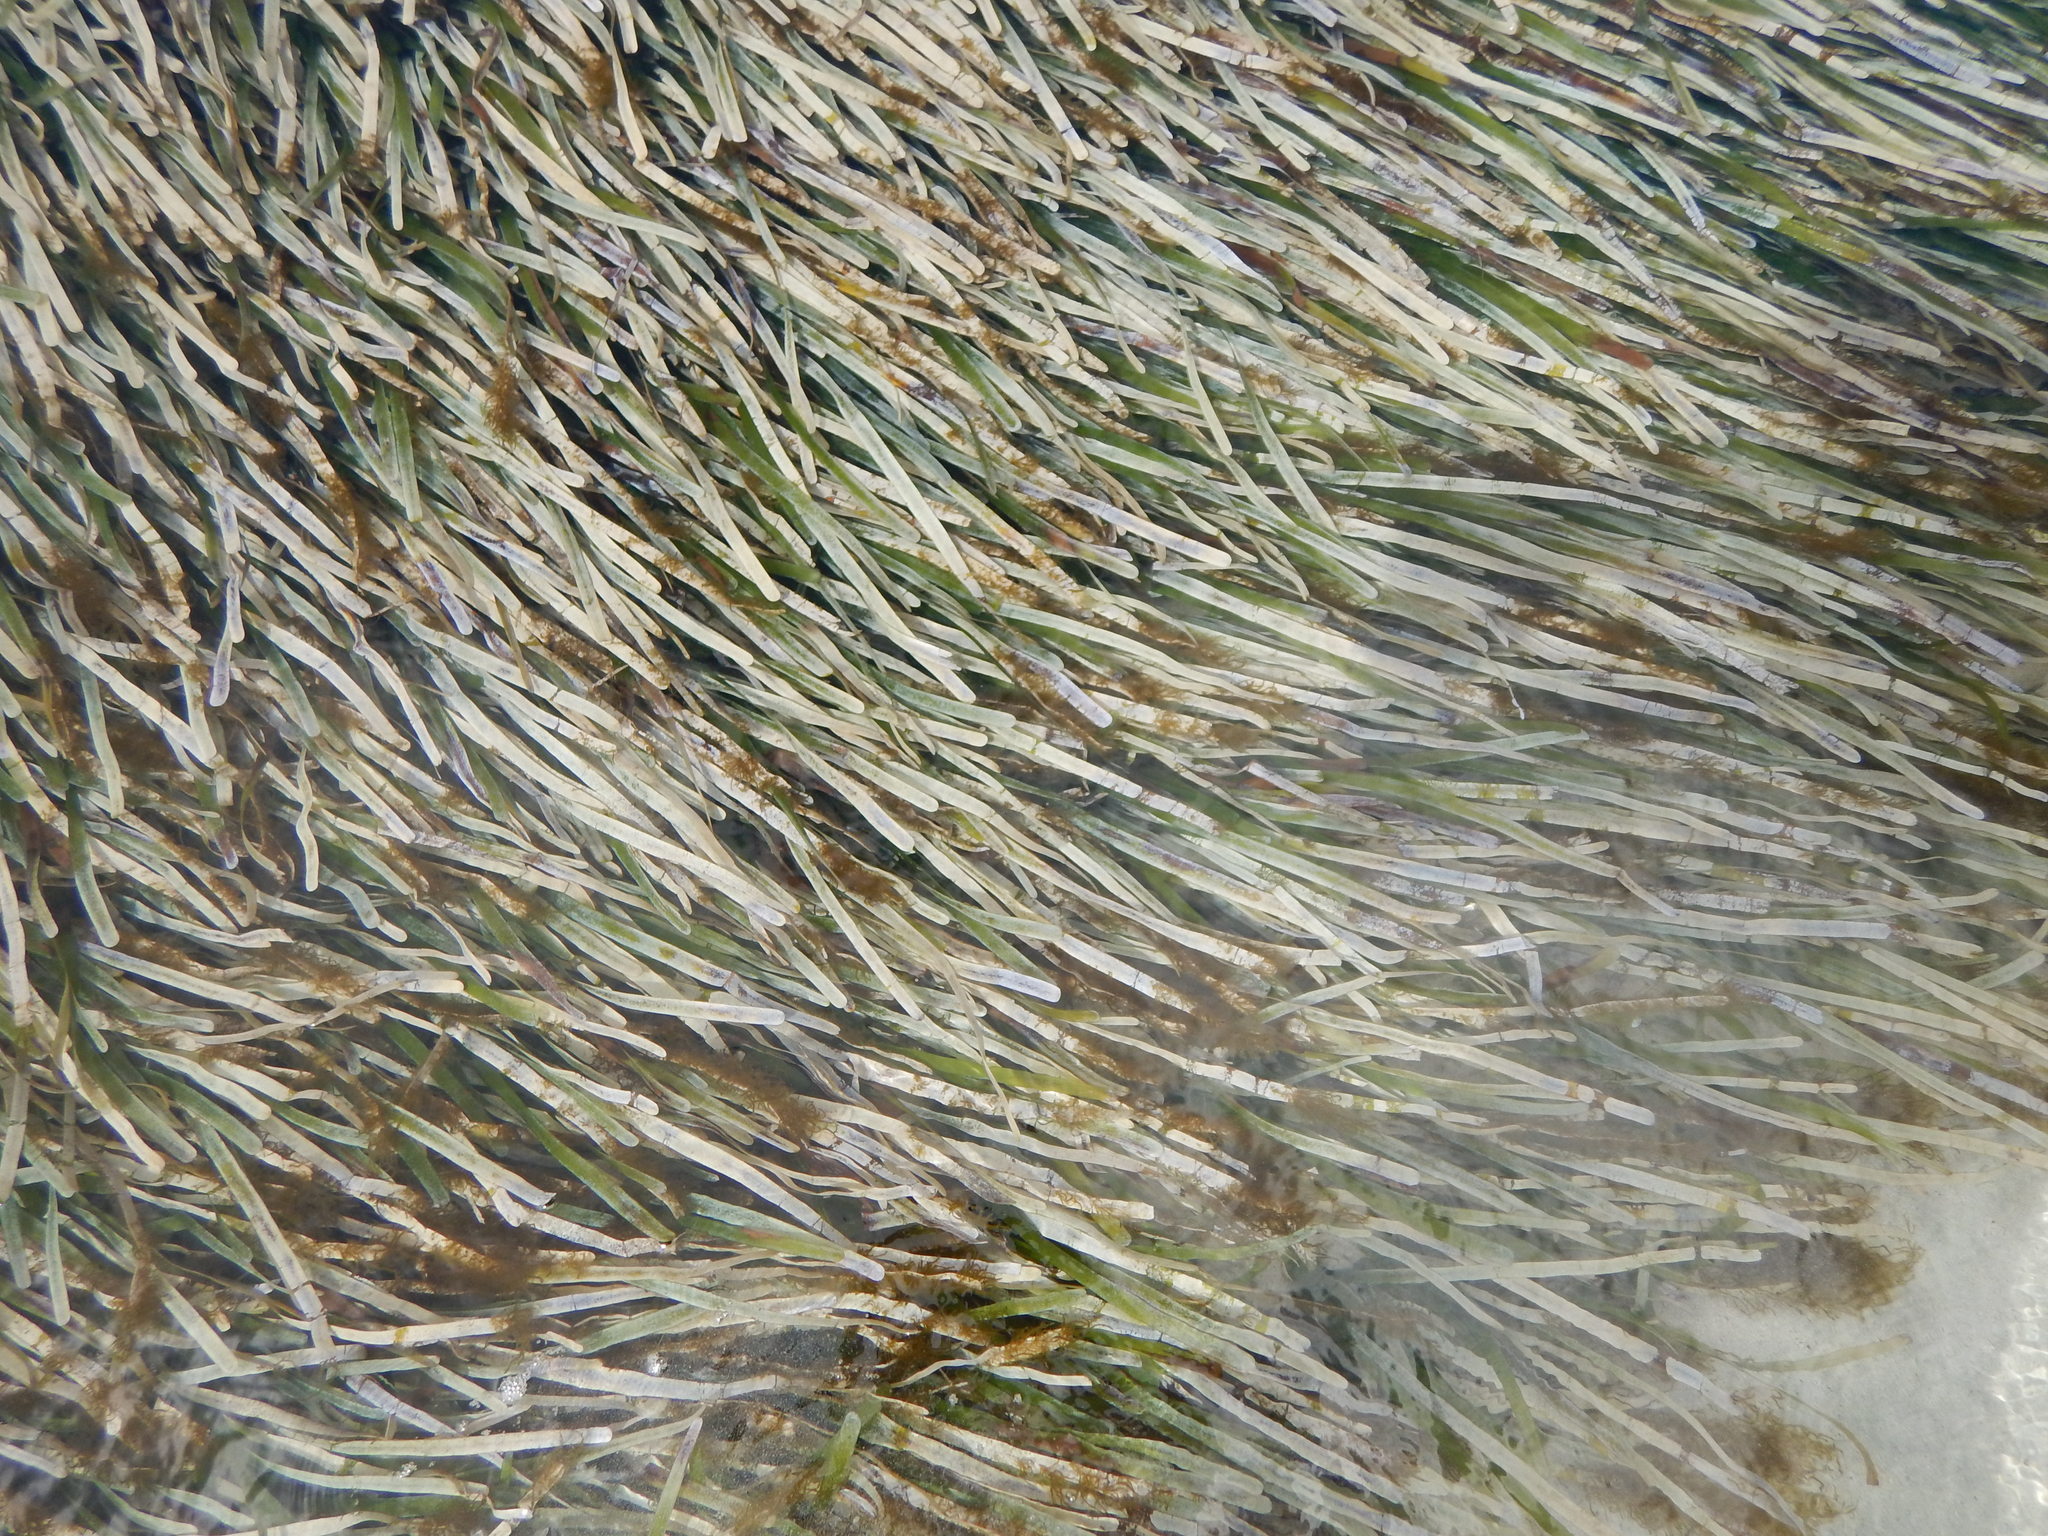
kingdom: Plantae
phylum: Tracheophyta
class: Liliopsida
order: Alismatales
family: Hydrocharitaceae
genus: Thalassia
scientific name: Thalassia testudinum
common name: Species code: tt
